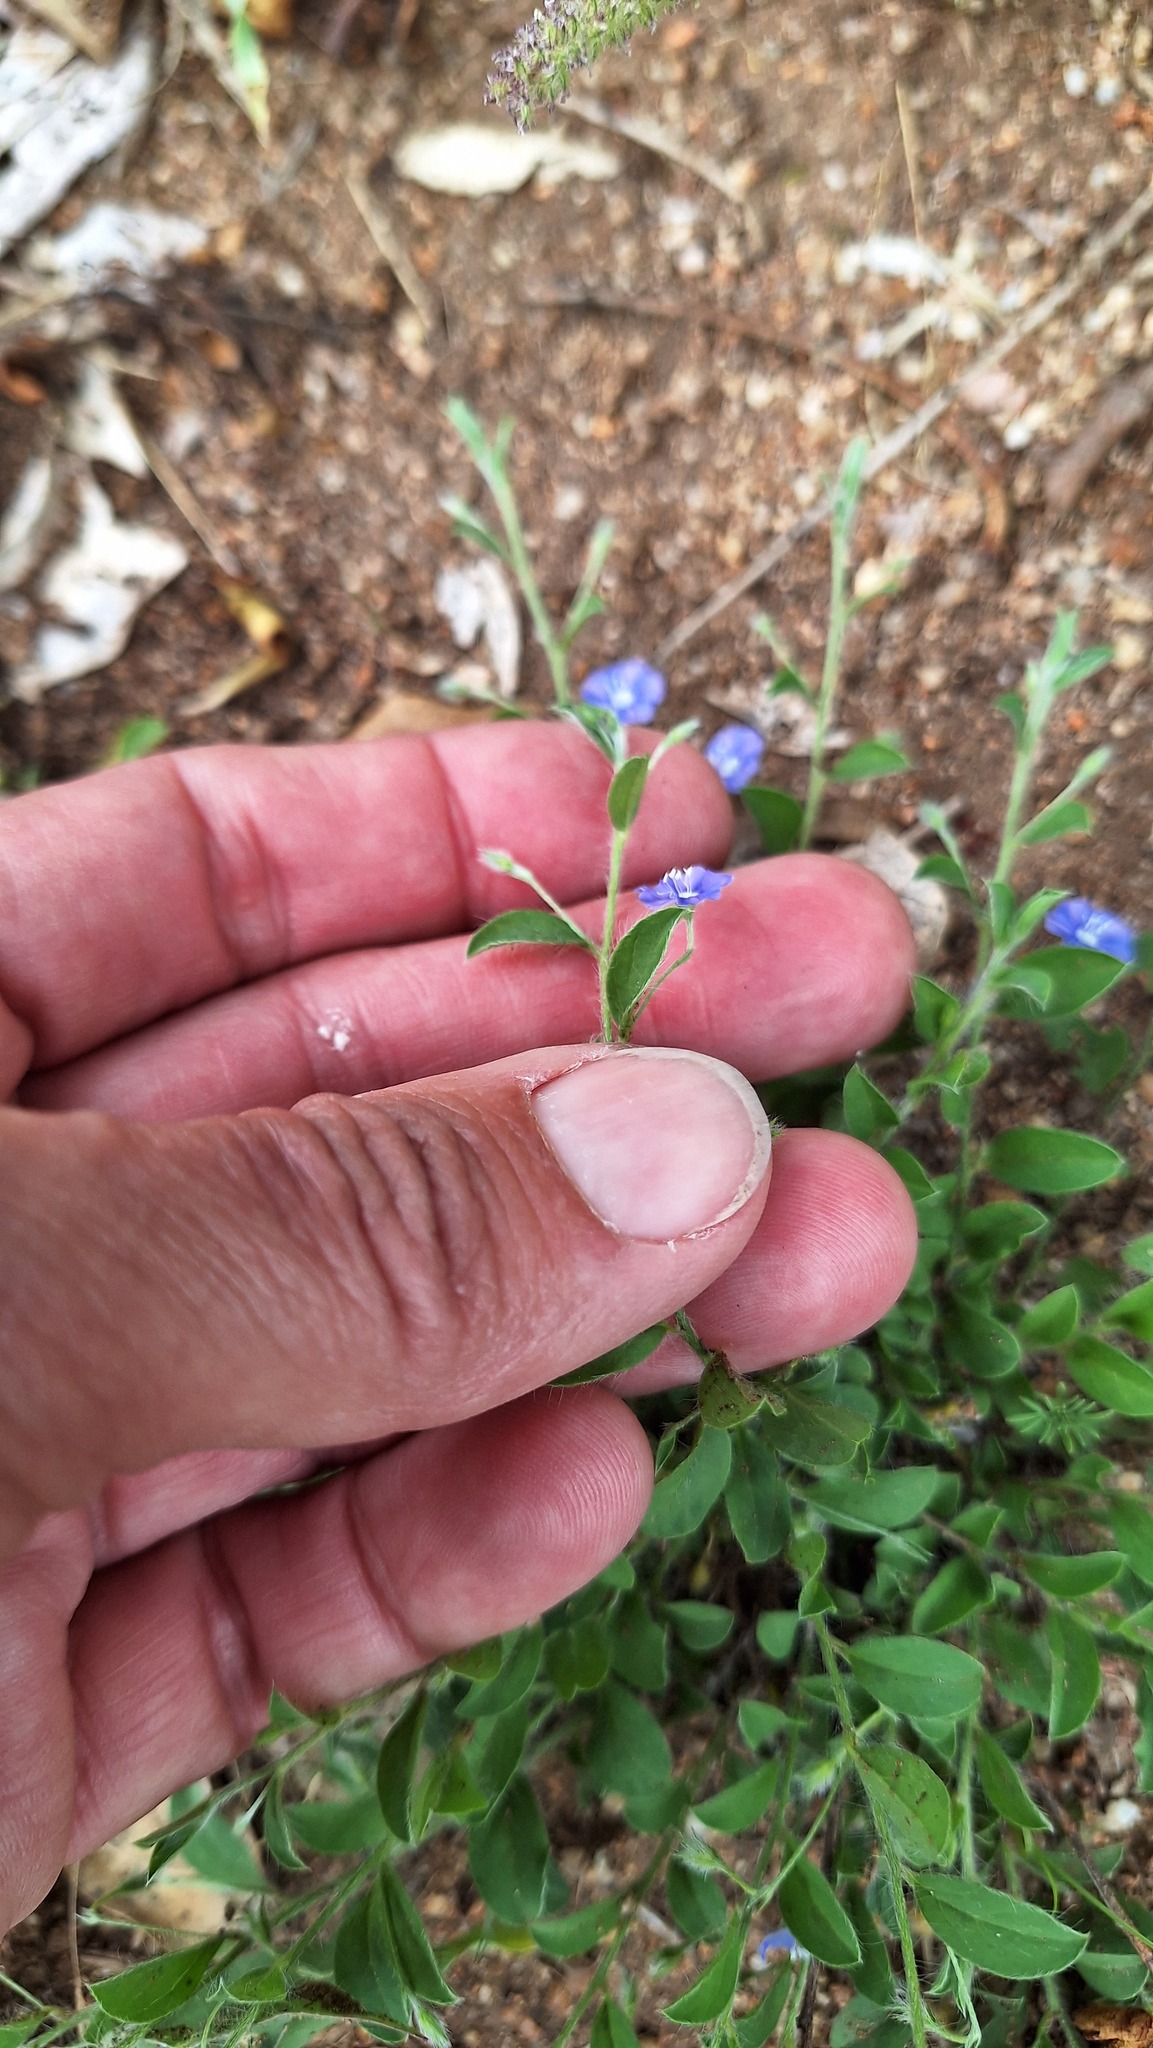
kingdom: Plantae
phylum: Tracheophyta
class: Magnoliopsida
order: Solanales
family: Convolvulaceae
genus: Evolvulus
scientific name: Evolvulus alsinoides
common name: Slender dwarf morning-glory
